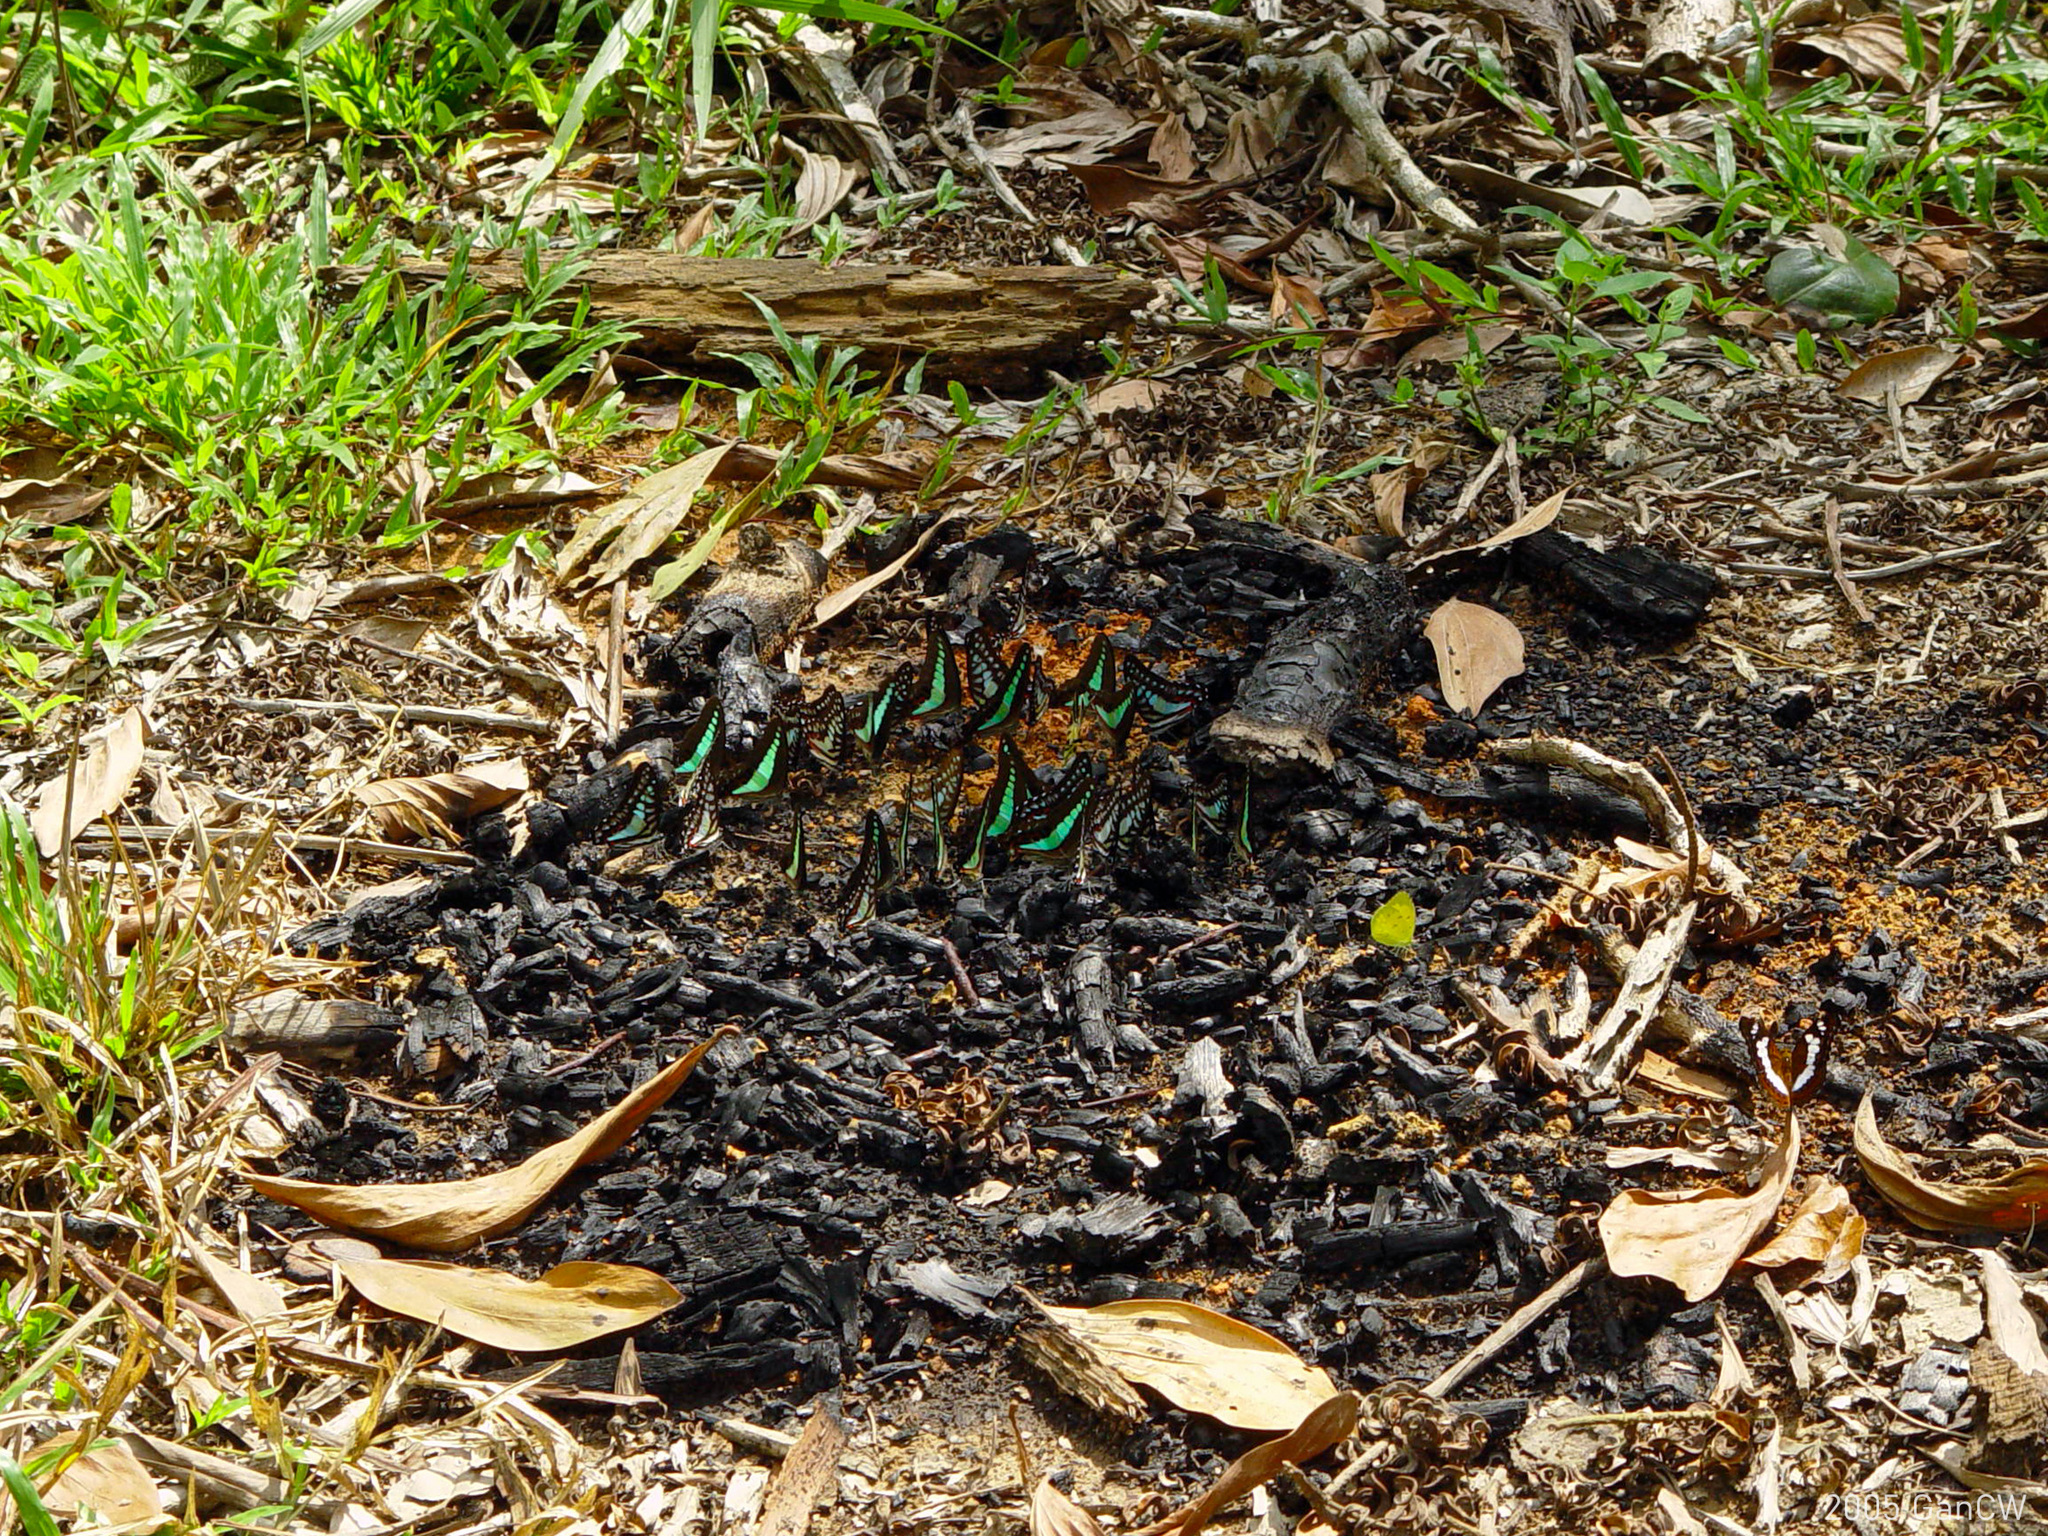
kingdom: Fungi
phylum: Ascomycota
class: Sordariomycetes
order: Microascales
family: Microascaceae
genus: Graphium
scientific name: Graphium sarpedon
